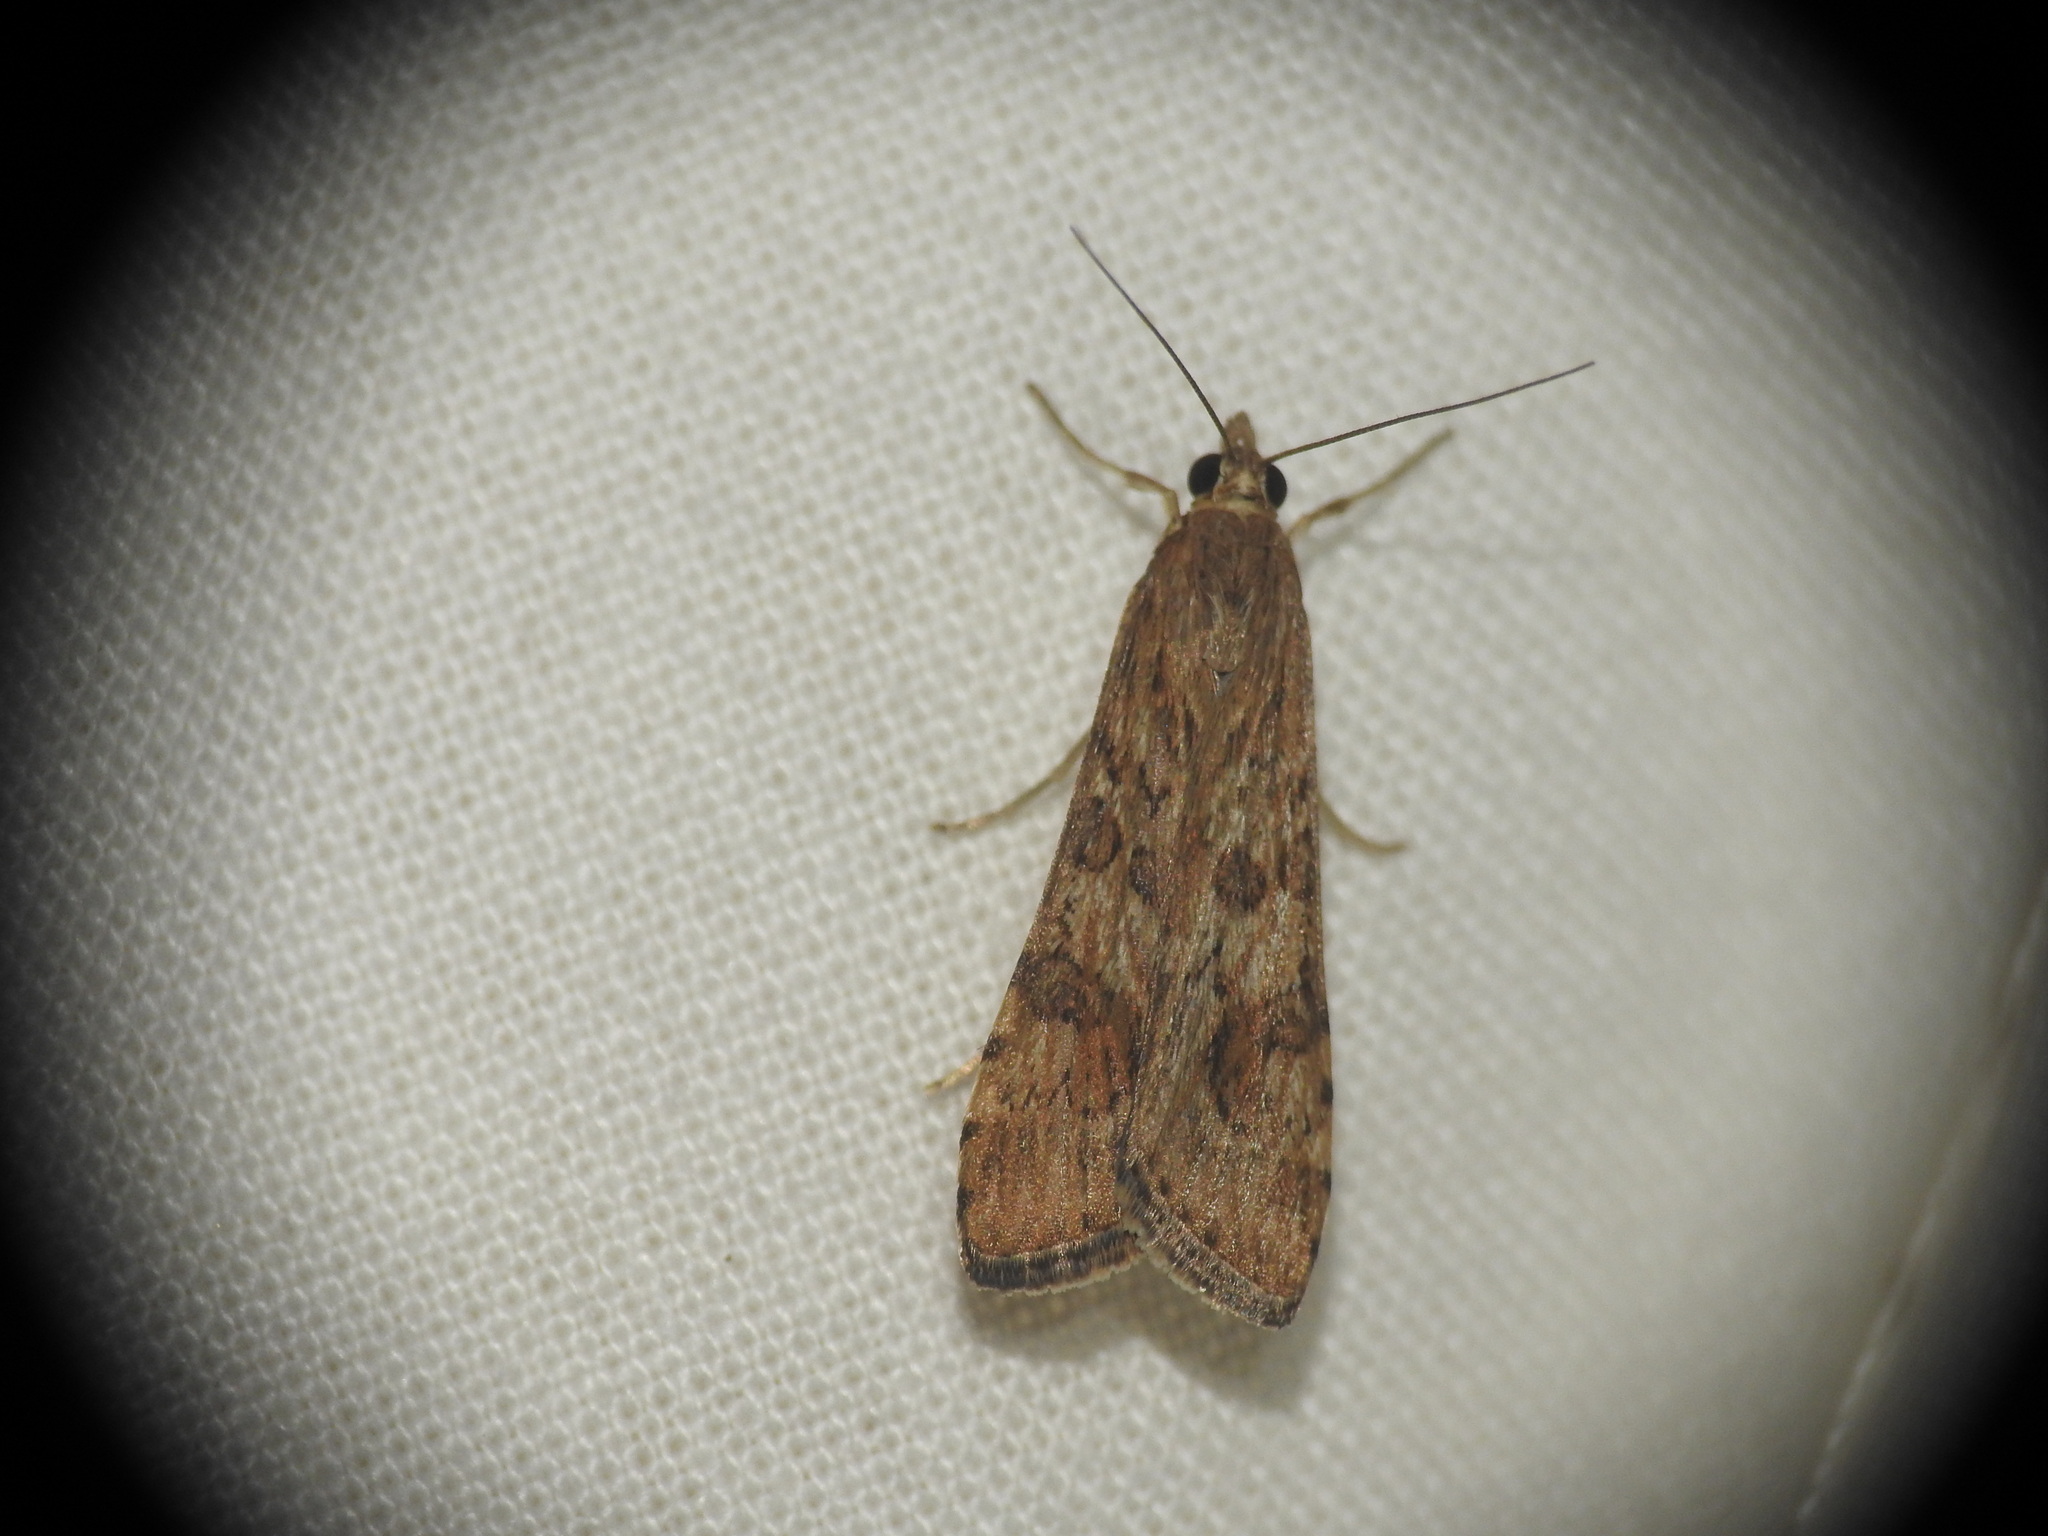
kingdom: Animalia
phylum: Arthropoda
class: Insecta
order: Lepidoptera
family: Crambidae
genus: Nomophila
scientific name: Nomophila noctuella
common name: Rush veneer
